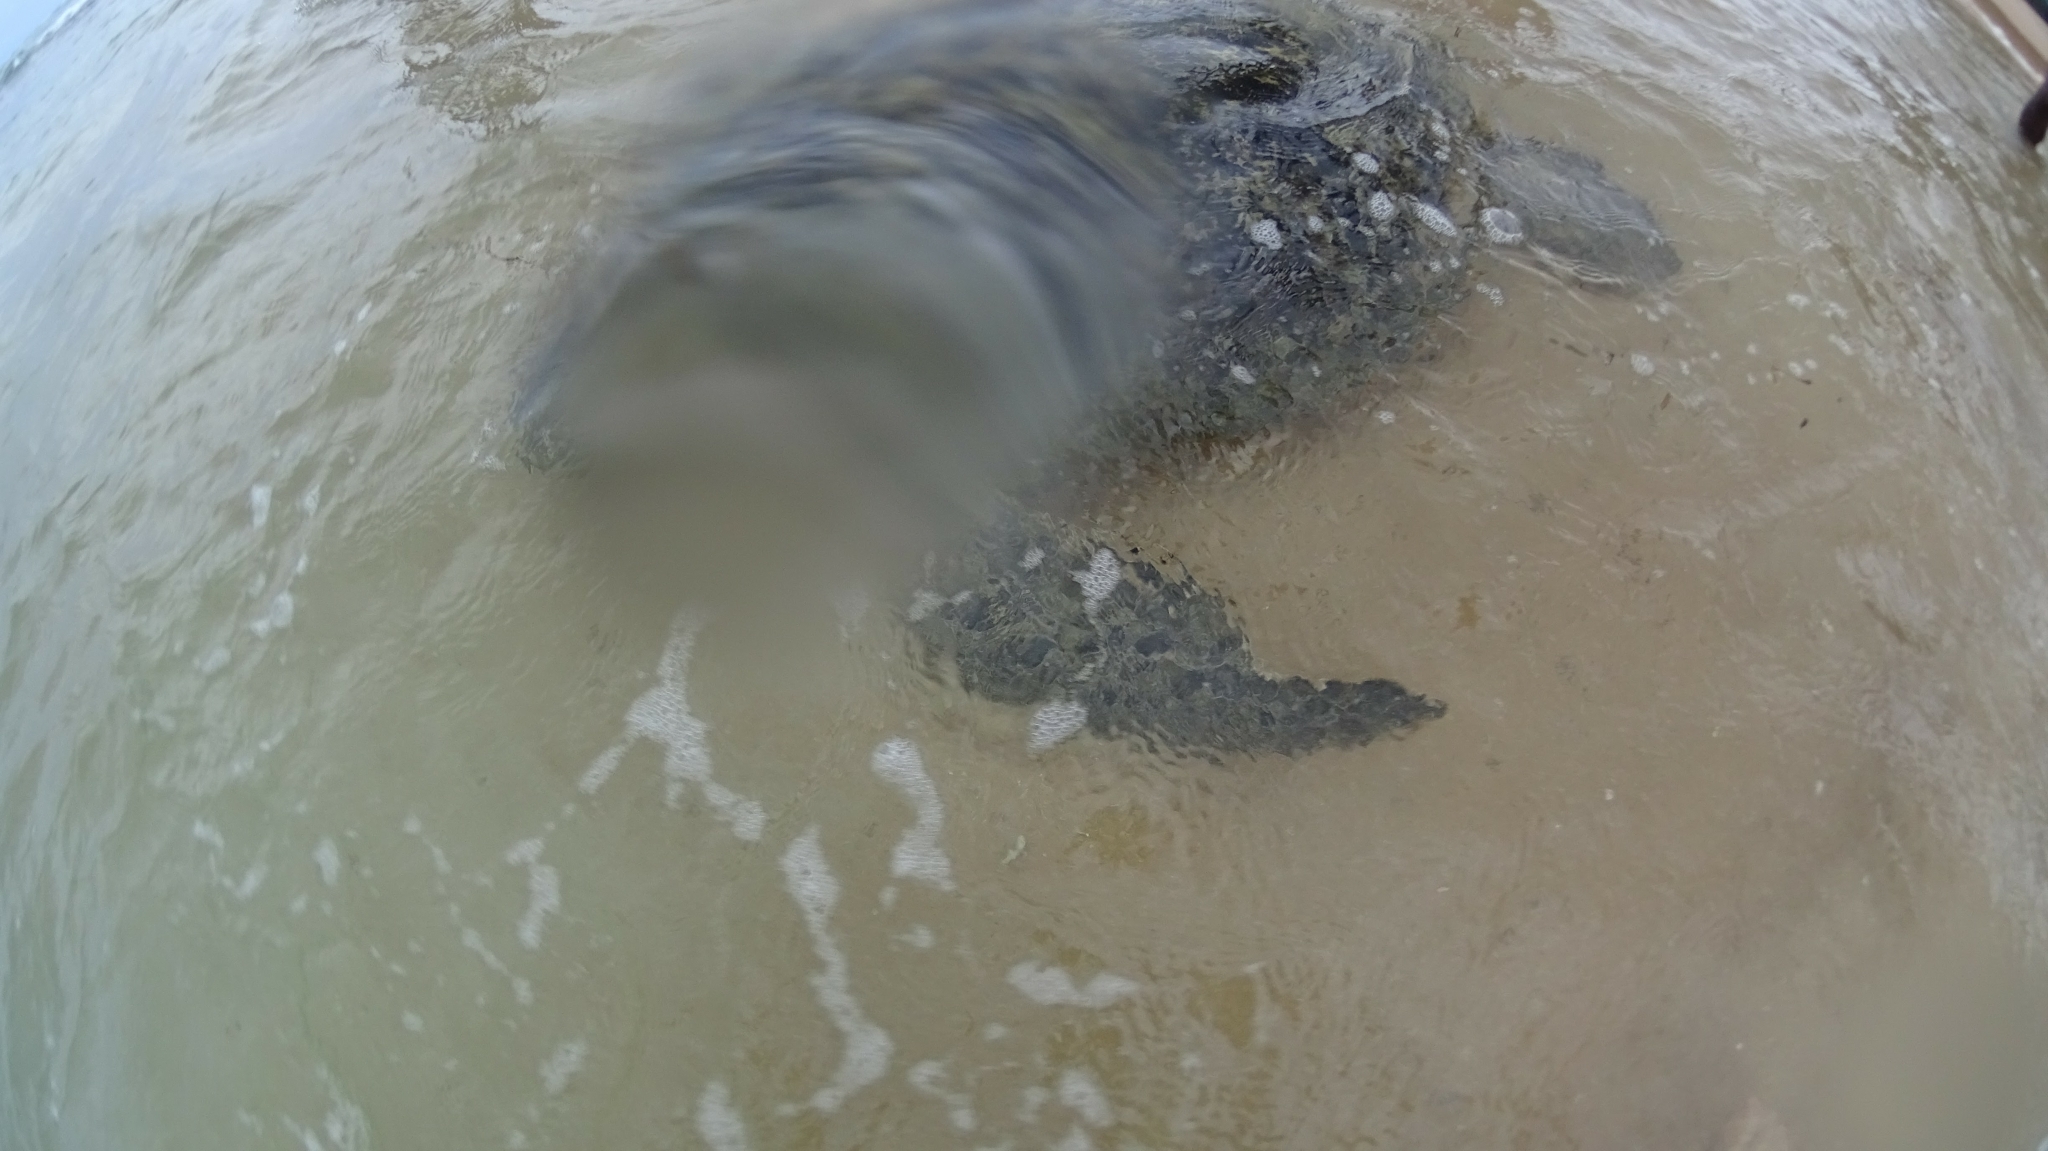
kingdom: Animalia
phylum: Chordata
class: Testudines
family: Cheloniidae
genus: Chelonia
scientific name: Chelonia mydas
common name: Green turtle
